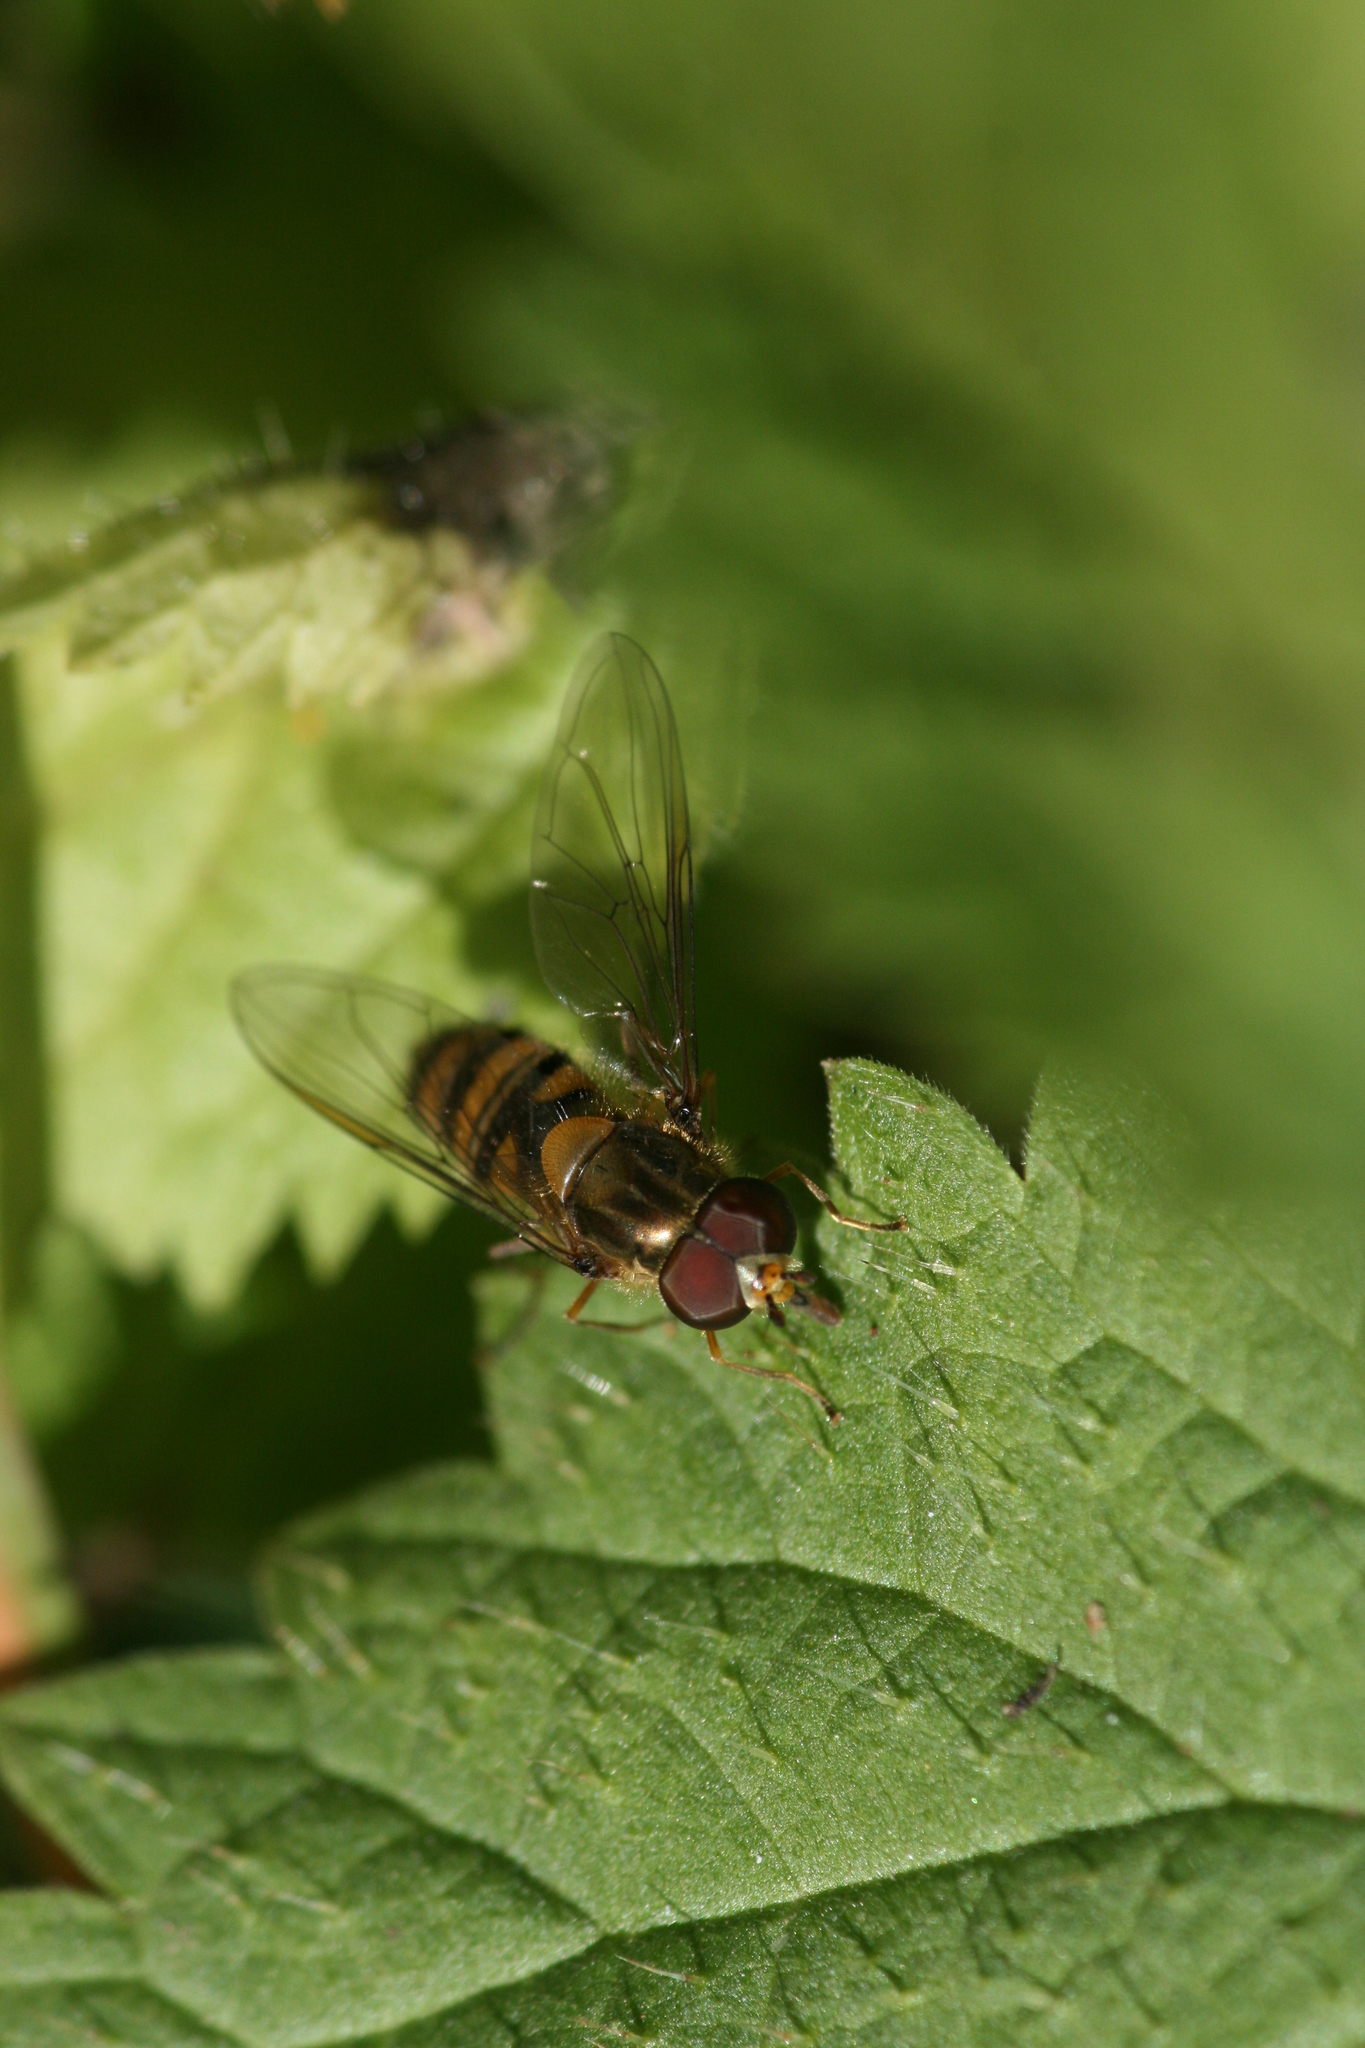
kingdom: Animalia
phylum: Arthropoda
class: Insecta
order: Diptera
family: Syrphidae
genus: Episyrphus
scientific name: Episyrphus balteatus
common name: Marmalade hoverfly
